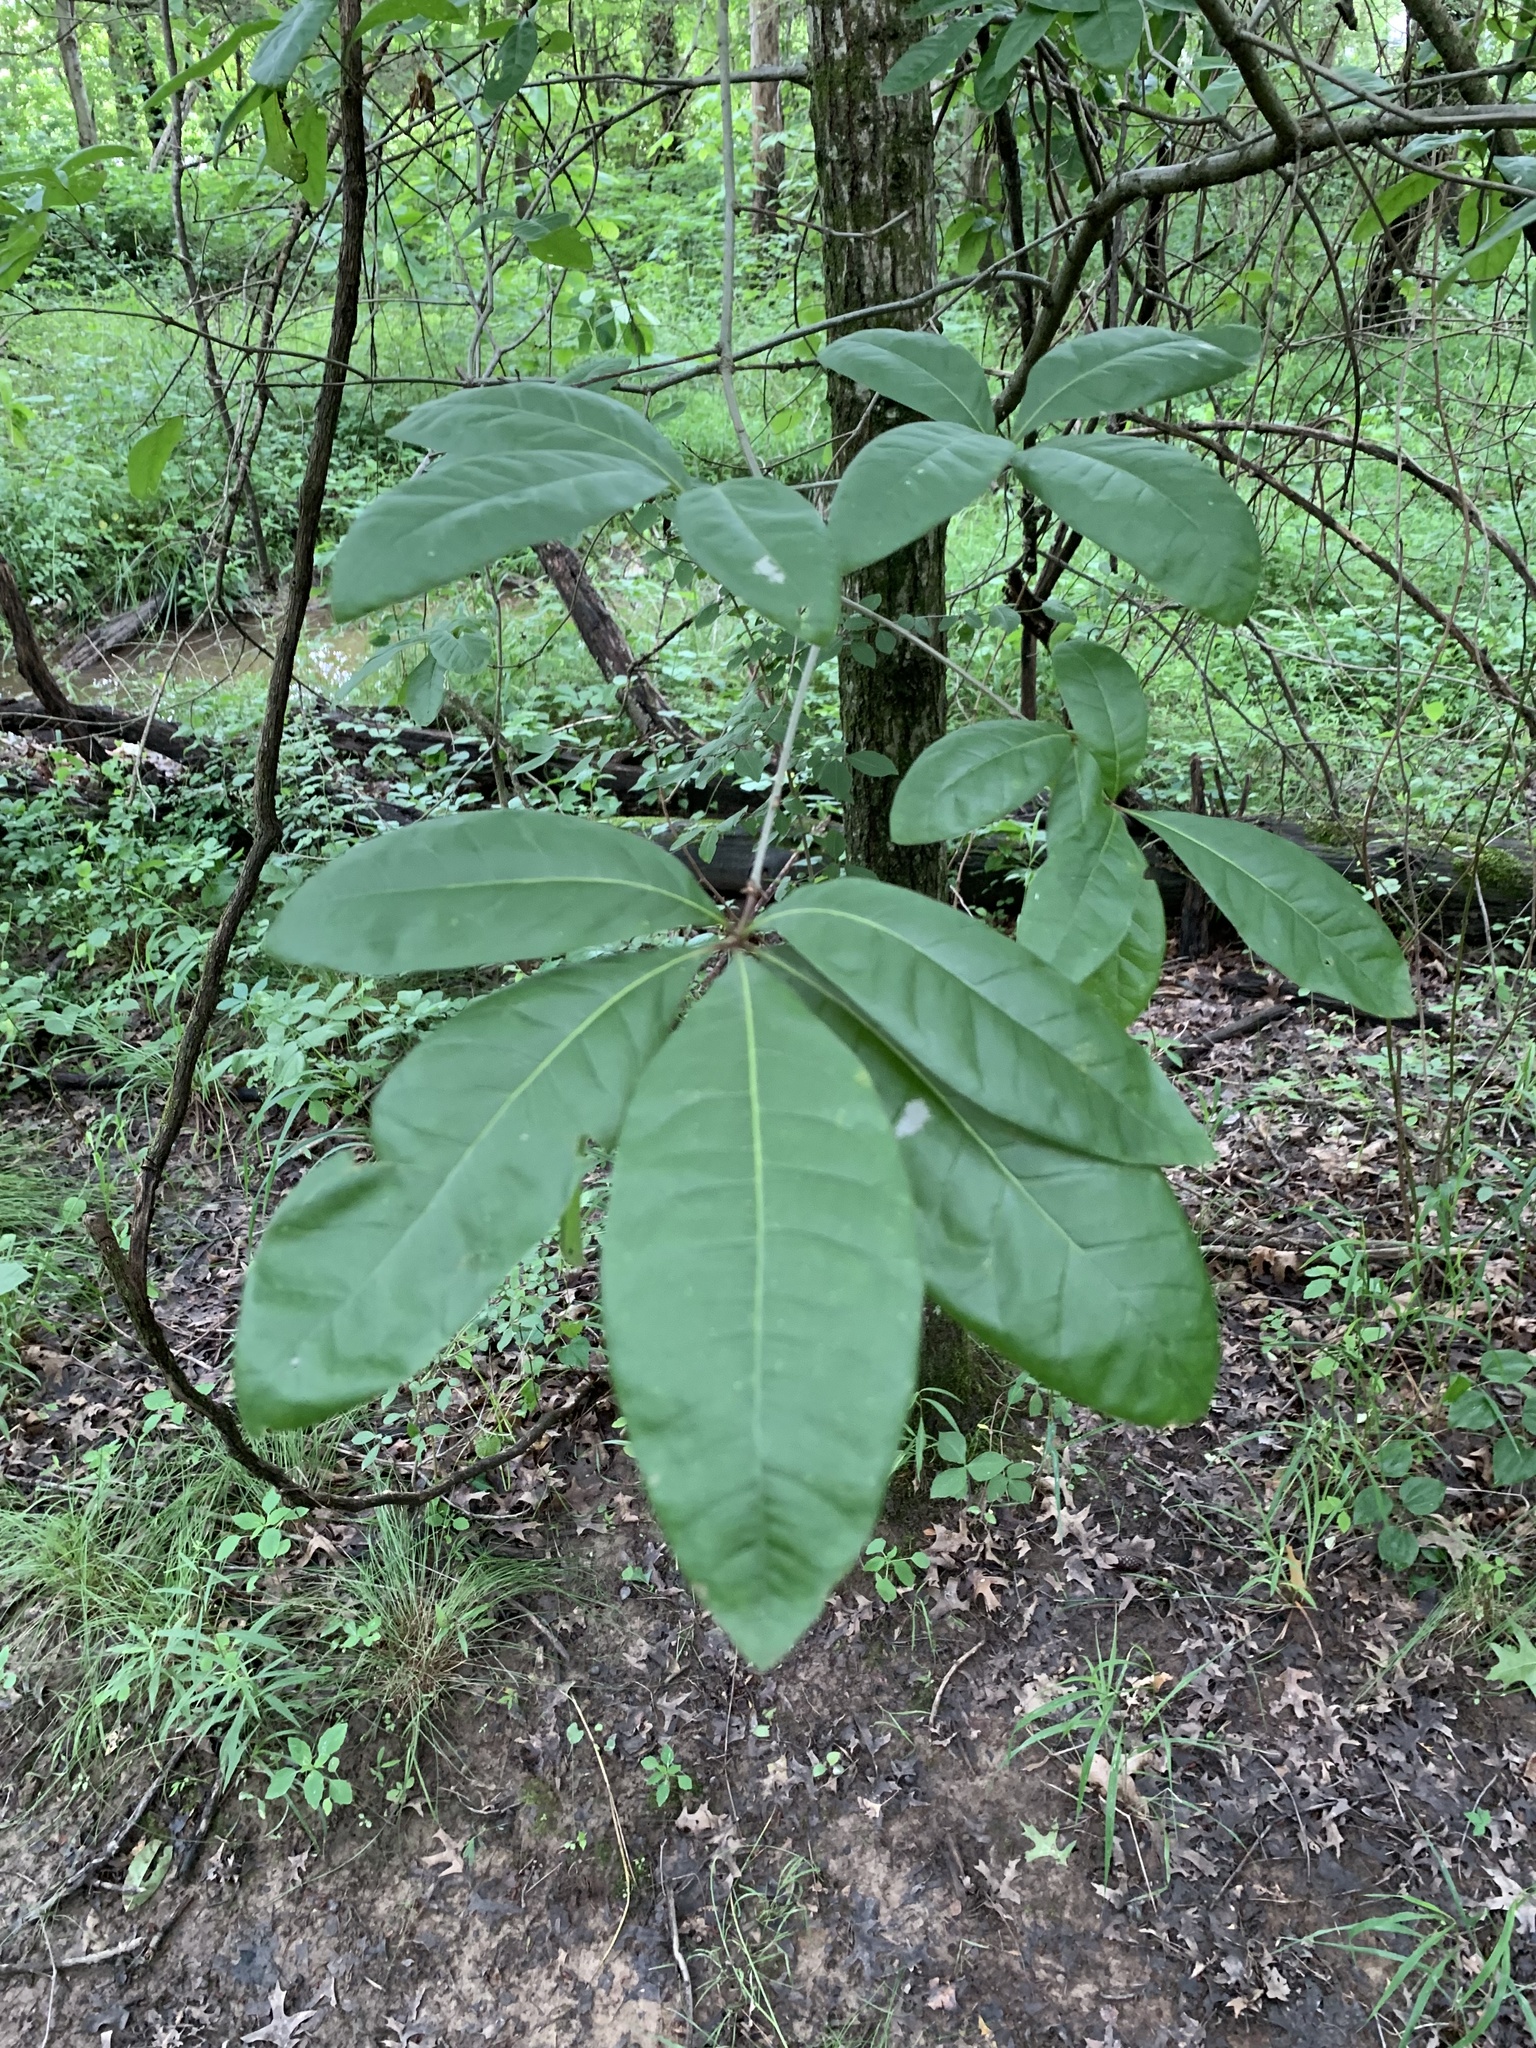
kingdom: Plantae
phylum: Tracheophyta
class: Magnoliopsida
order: Fagales
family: Fagaceae
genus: Quercus
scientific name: Quercus imbricaria
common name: Shingle oak
